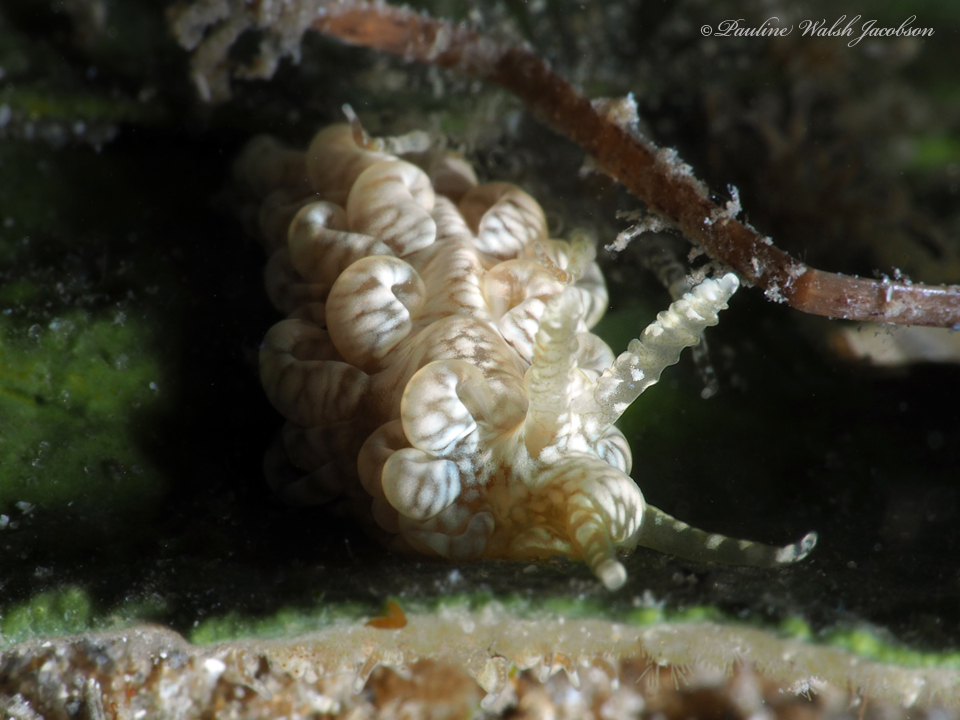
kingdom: Animalia
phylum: Mollusca
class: Gastropoda
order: Nudibranchia
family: Aeolidiidae
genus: Spurilla
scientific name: Spurilla sargassicola
